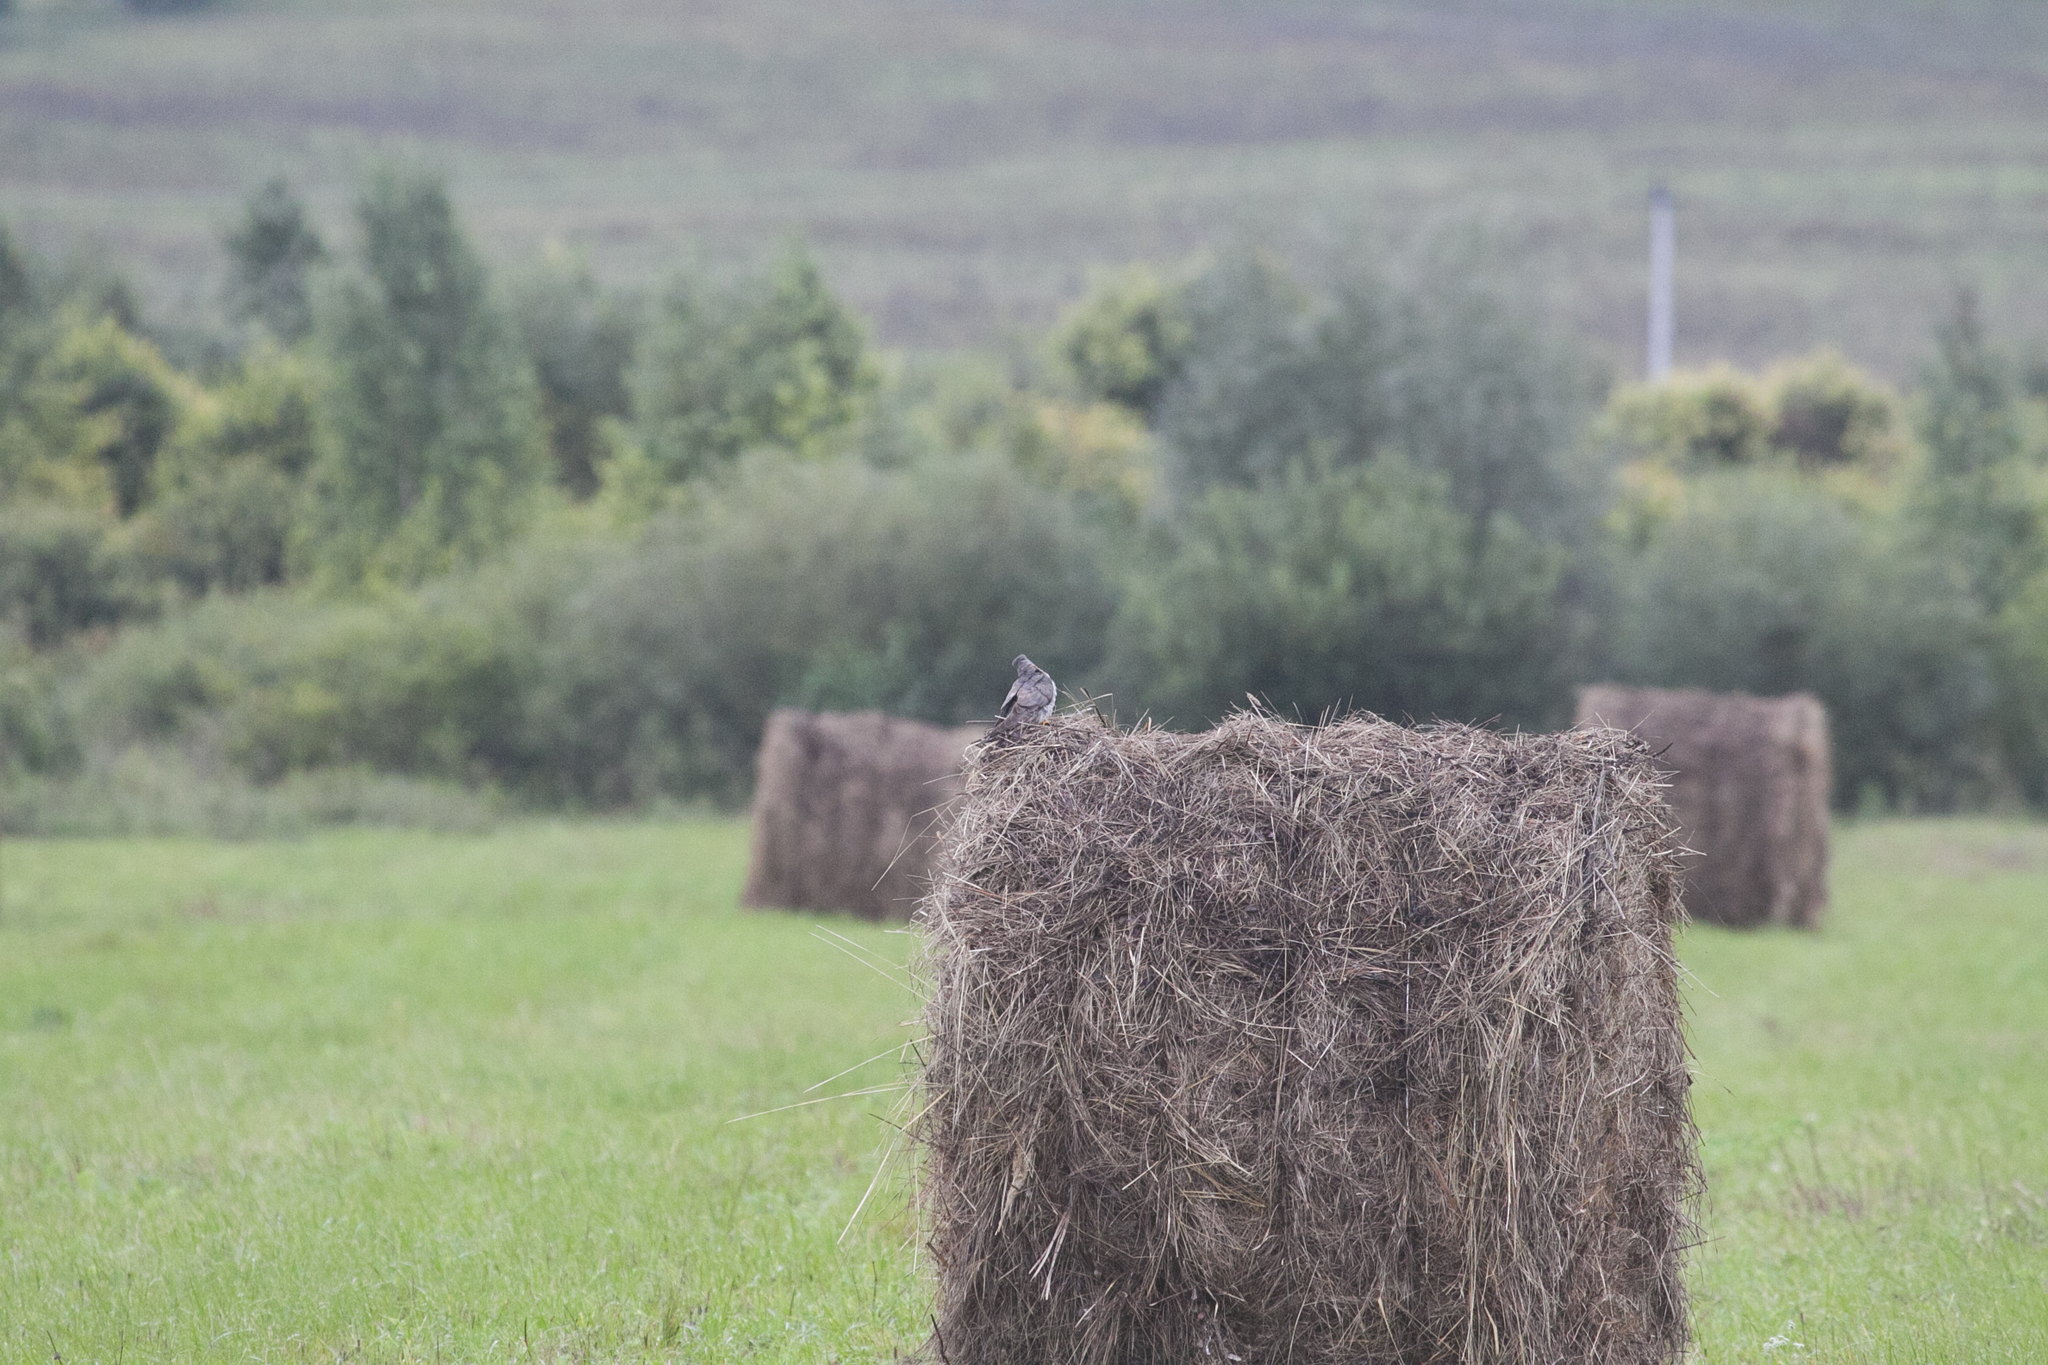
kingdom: Animalia
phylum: Chordata
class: Aves
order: Cuculiformes
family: Cuculidae
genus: Cuculus
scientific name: Cuculus canorus
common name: Common cuckoo
